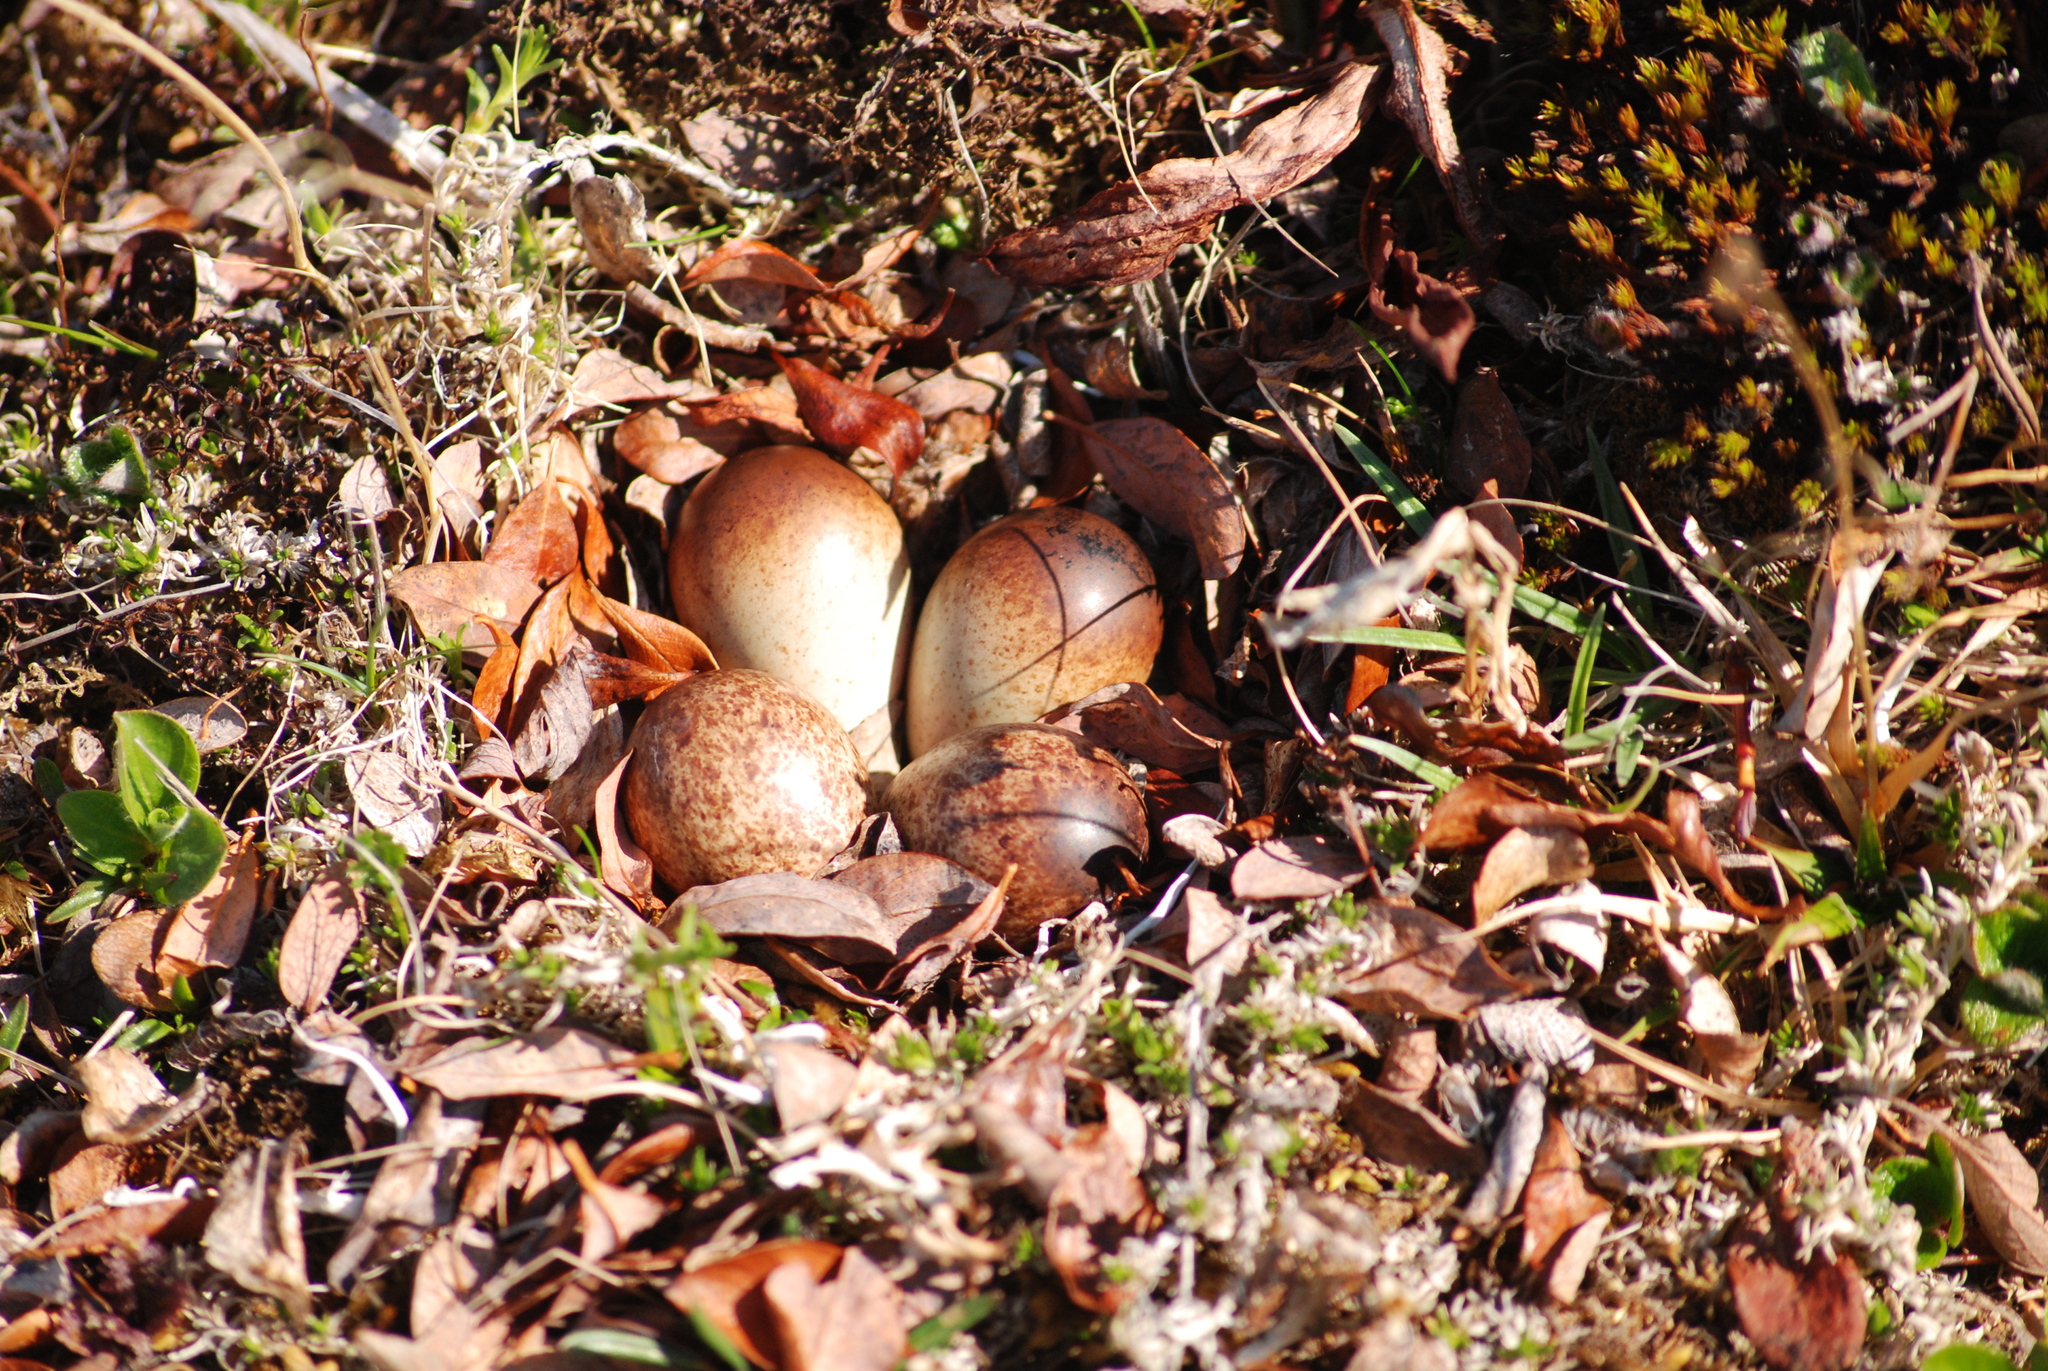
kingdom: Animalia
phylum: Chordata
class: Aves
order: Charadriiformes
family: Scolopacidae
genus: Calidris
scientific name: Calidris ruficollis
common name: Red-necked stint
